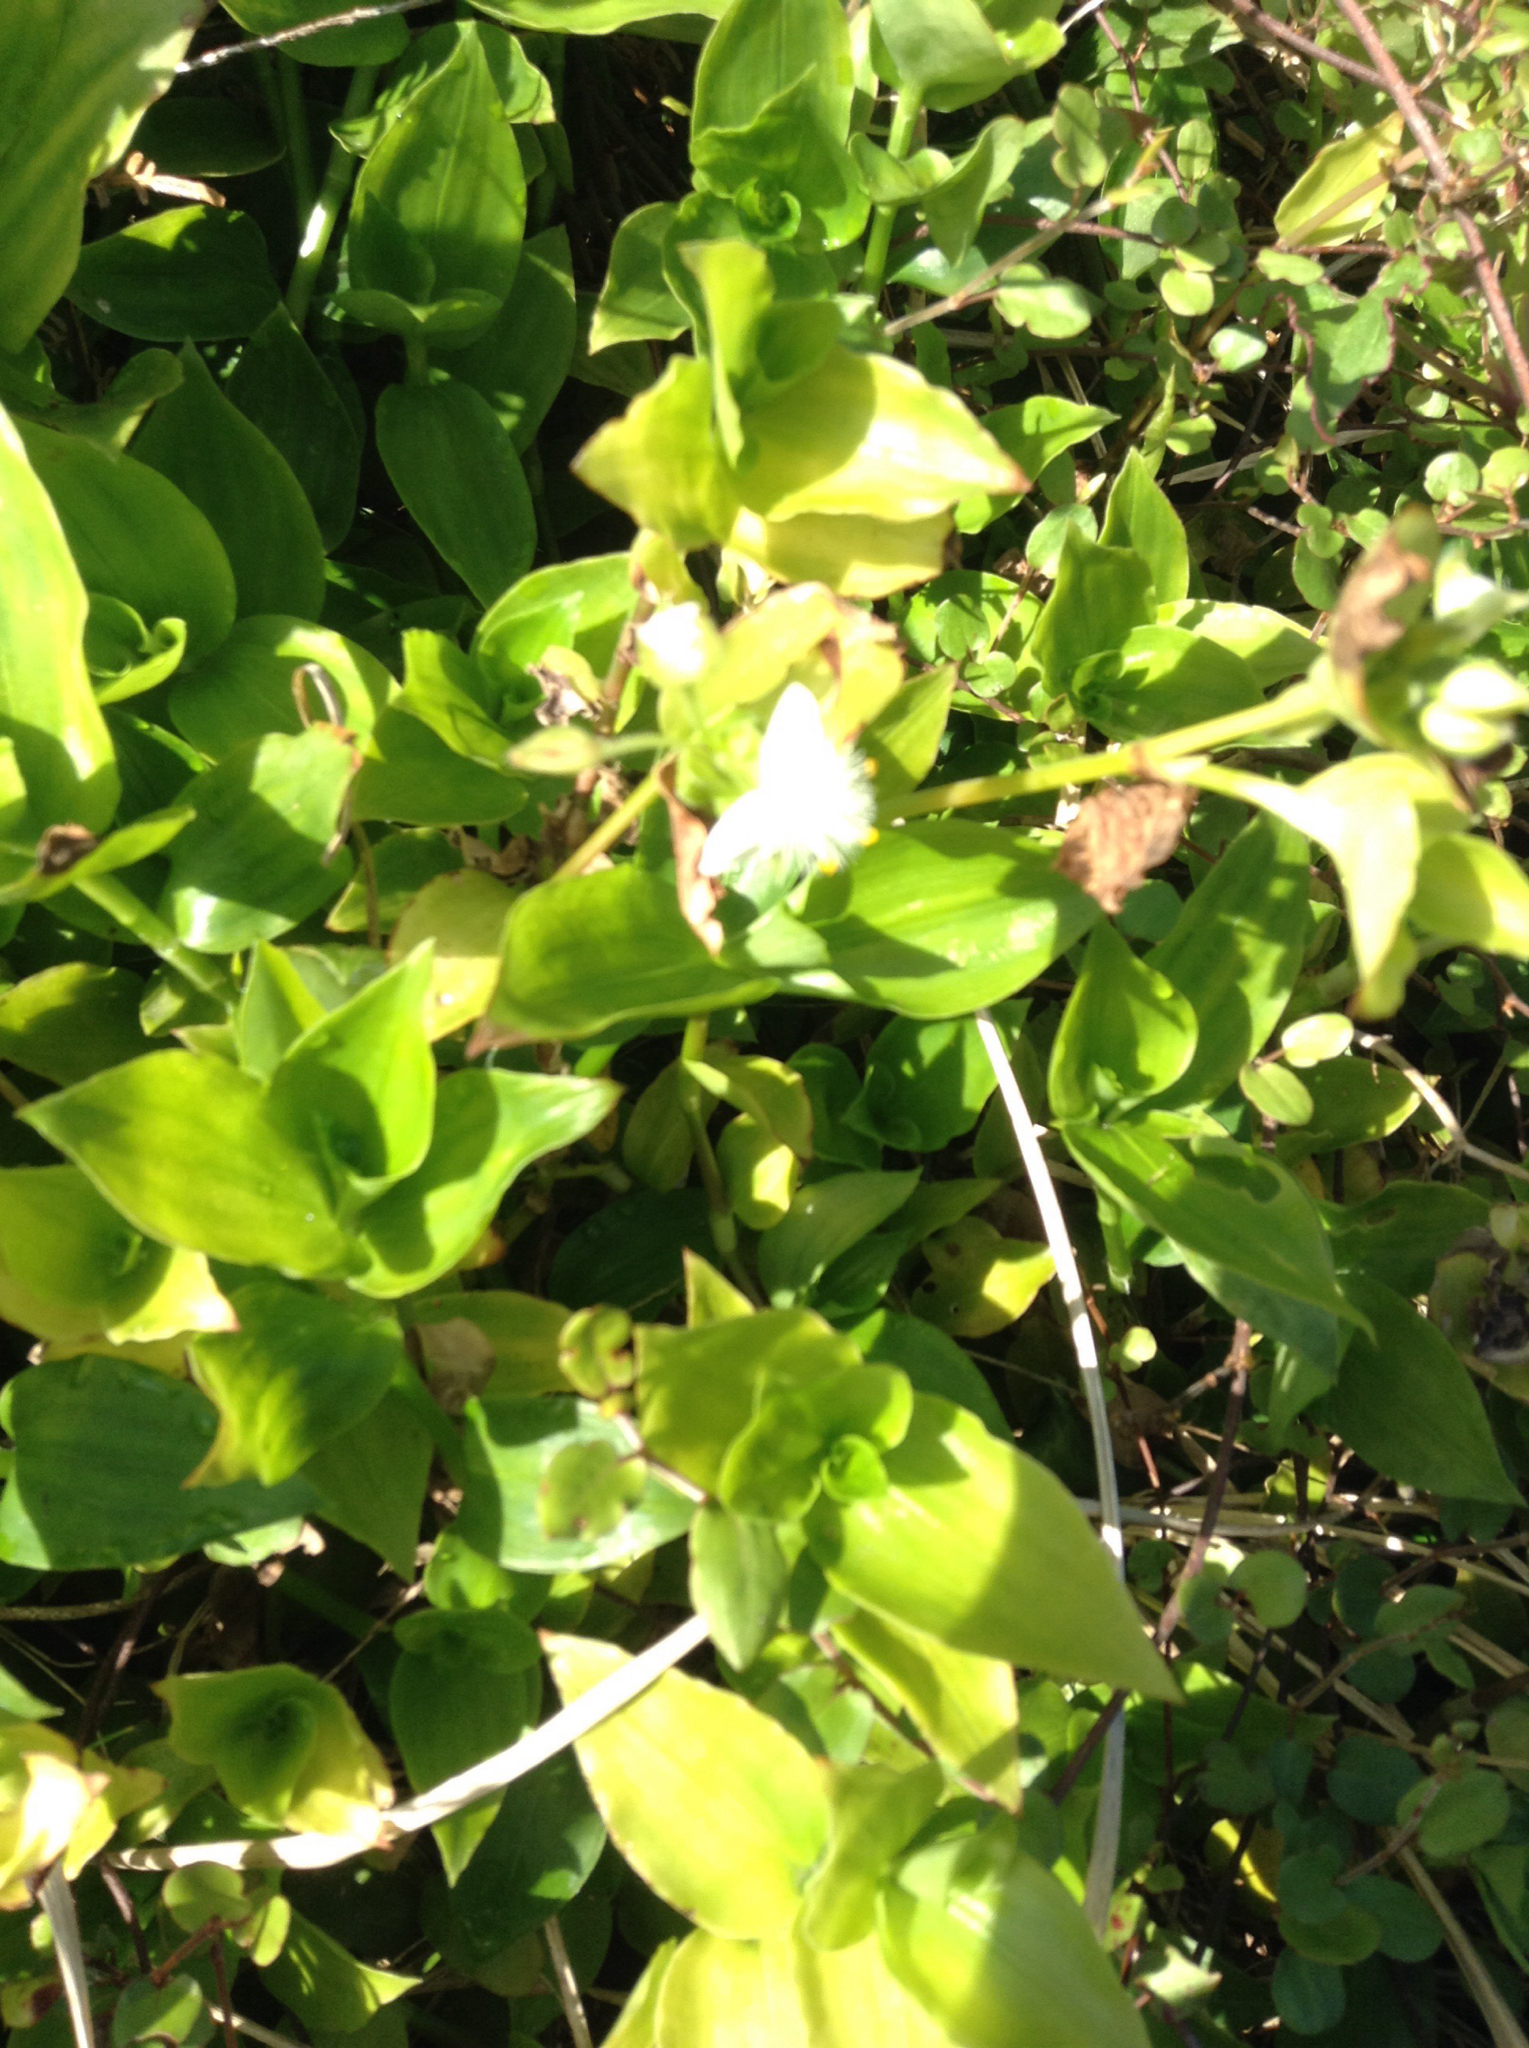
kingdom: Plantae
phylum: Tracheophyta
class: Liliopsida
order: Commelinales
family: Commelinaceae
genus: Tradescantia
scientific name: Tradescantia fluminensis
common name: Wandering-jew
